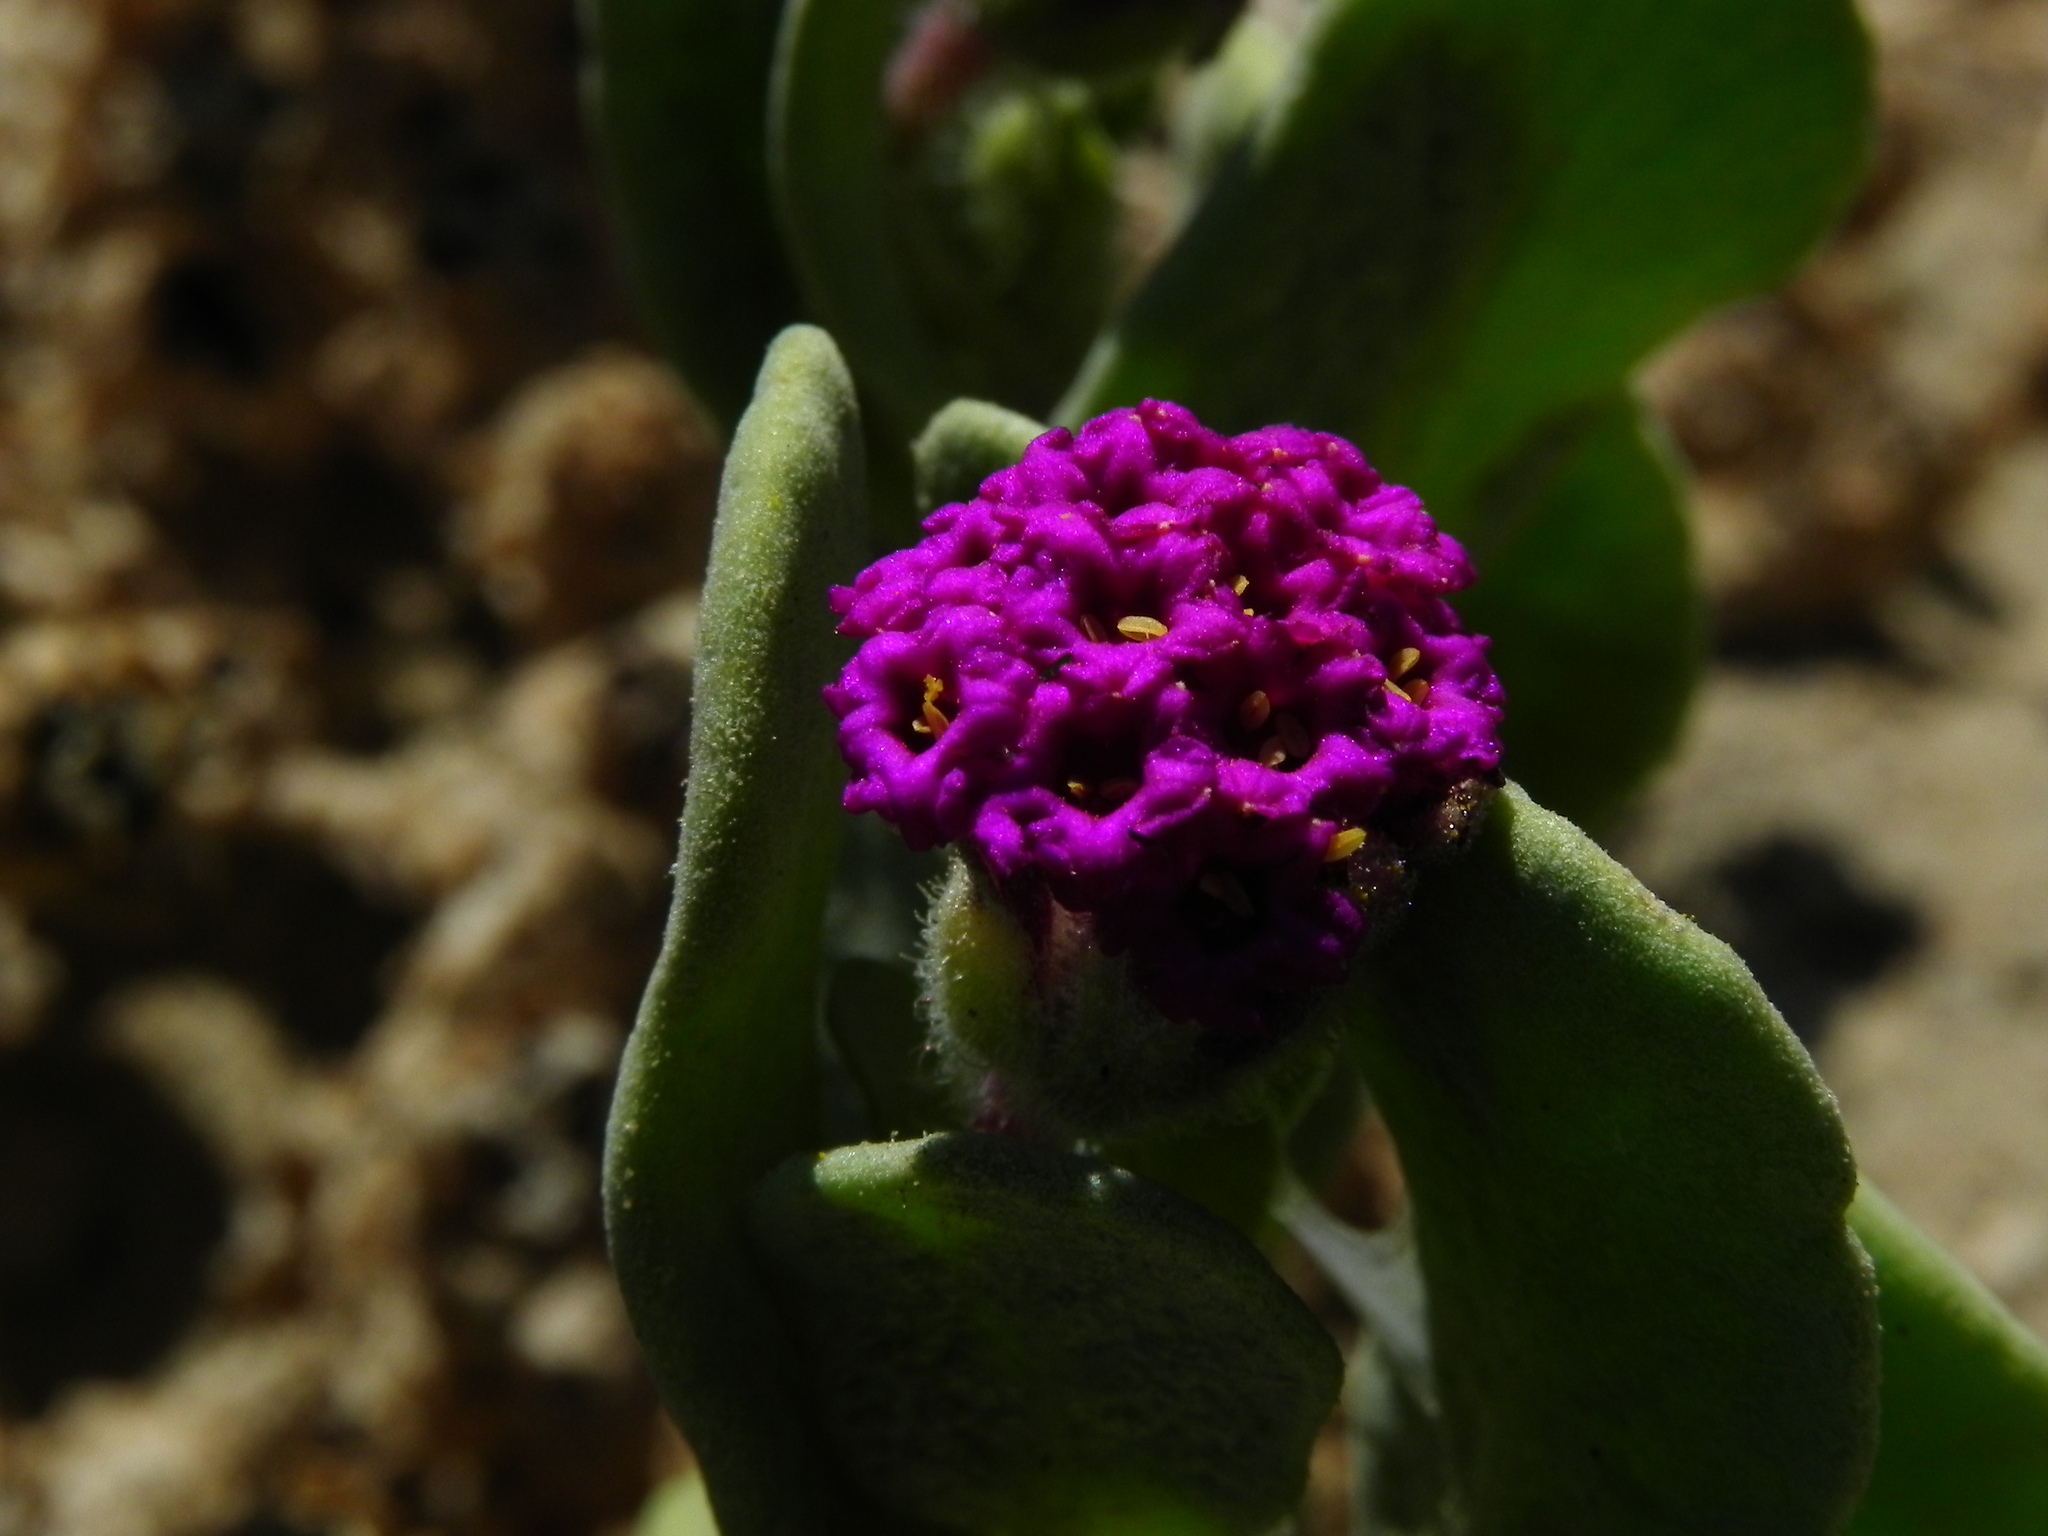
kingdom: Plantae
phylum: Tracheophyta
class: Magnoliopsida
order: Caryophyllales
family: Nyctaginaceae
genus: Abronia
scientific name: Abronia maritima
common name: Red sand-verbena
